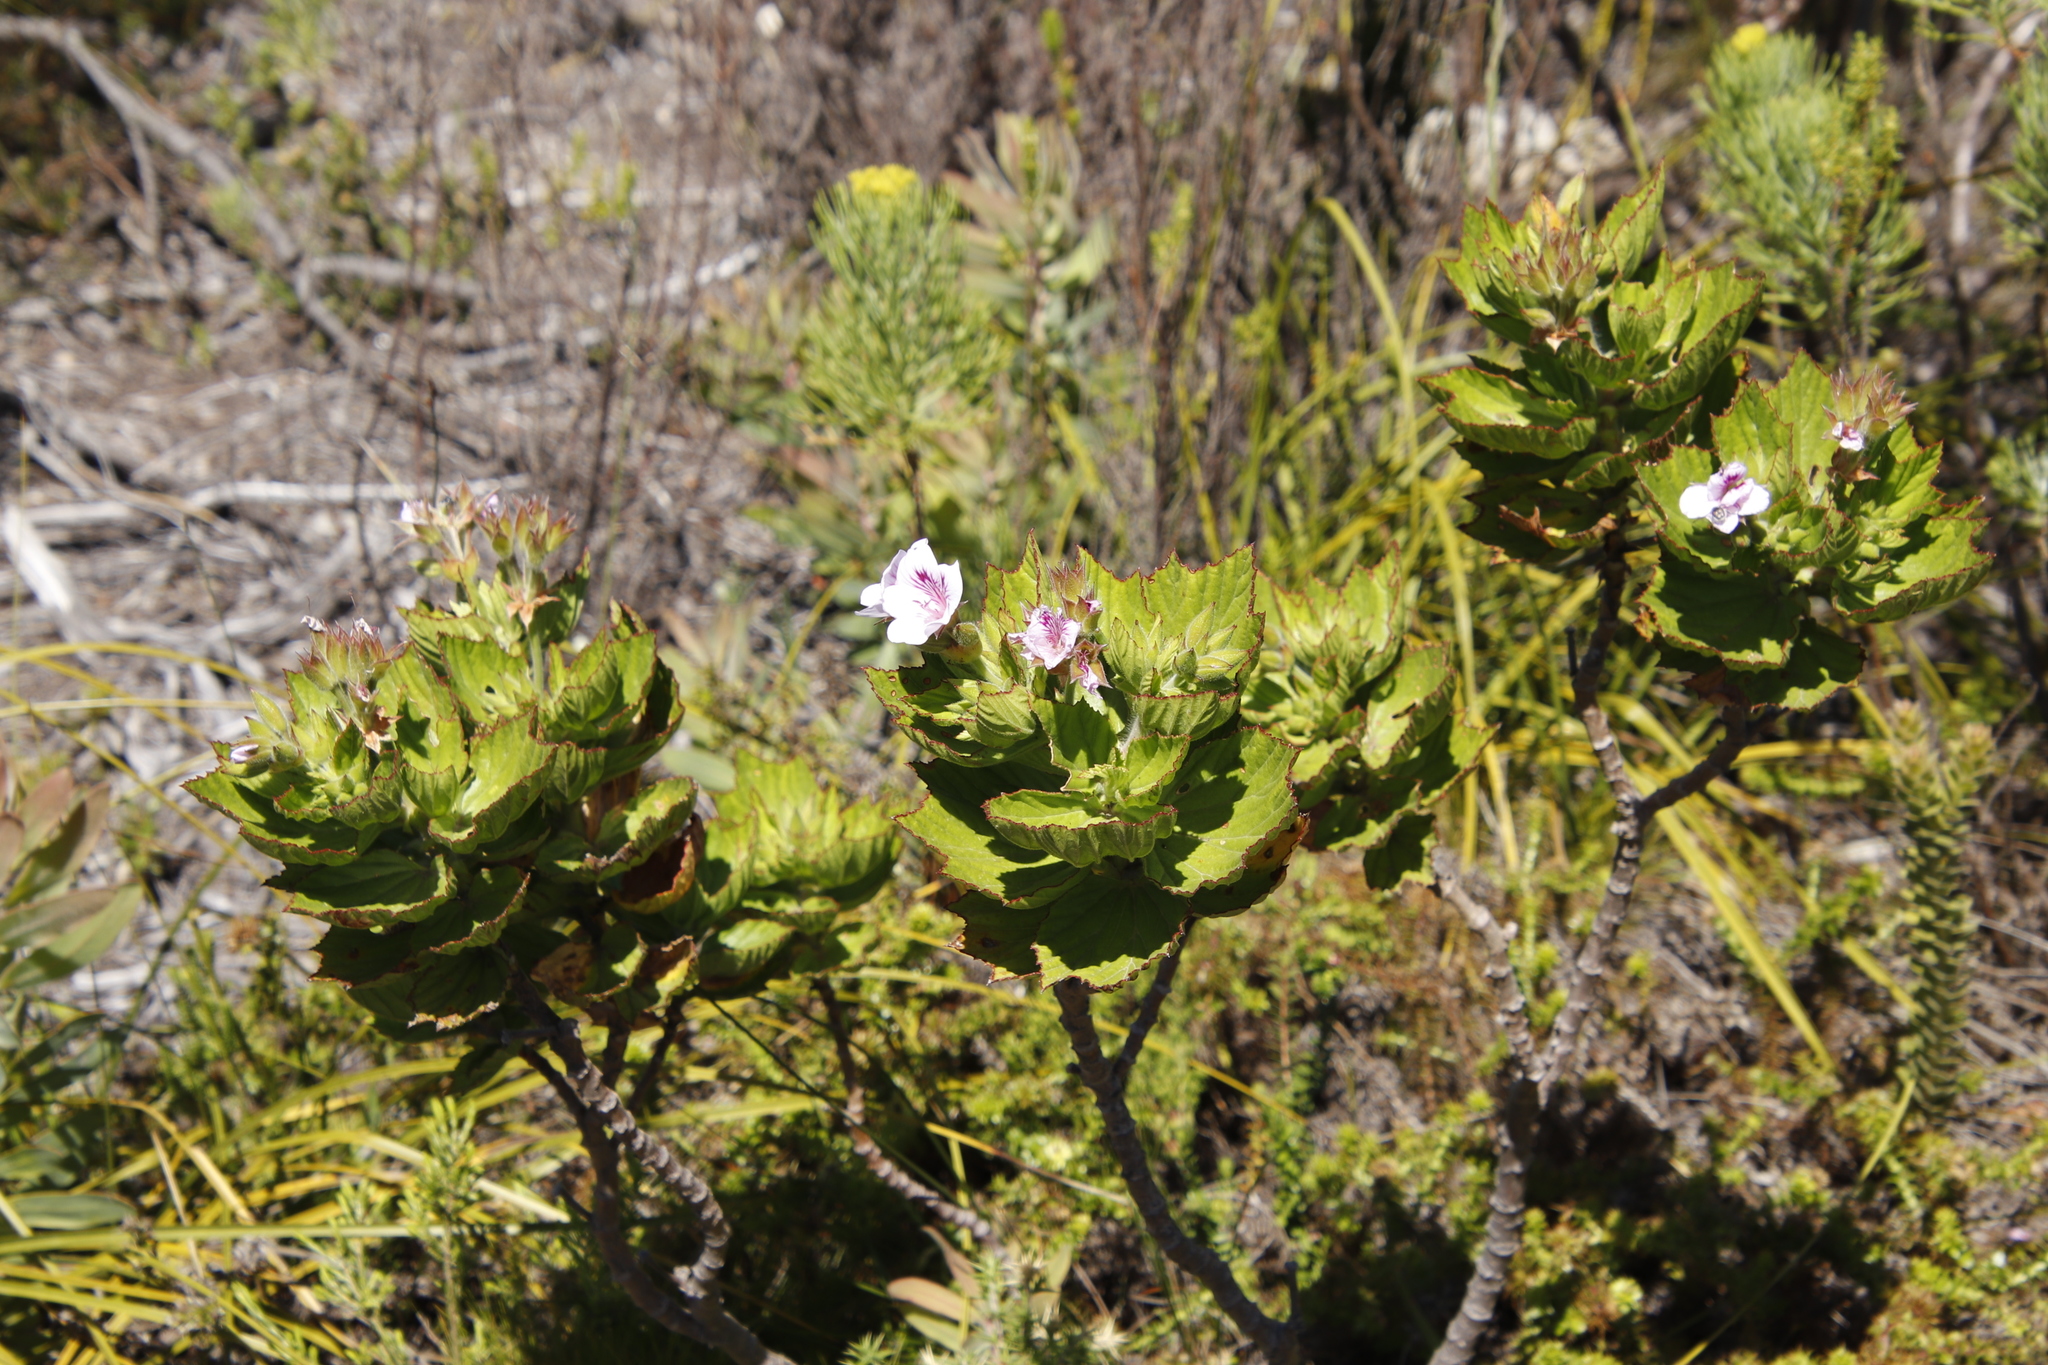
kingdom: Plantae
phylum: Tracheophyta
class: Magnoliopsida
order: Geraniales
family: Geraniaceae
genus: Pelargonium
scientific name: Pelargonium cucullatum
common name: Tree pelargonium
